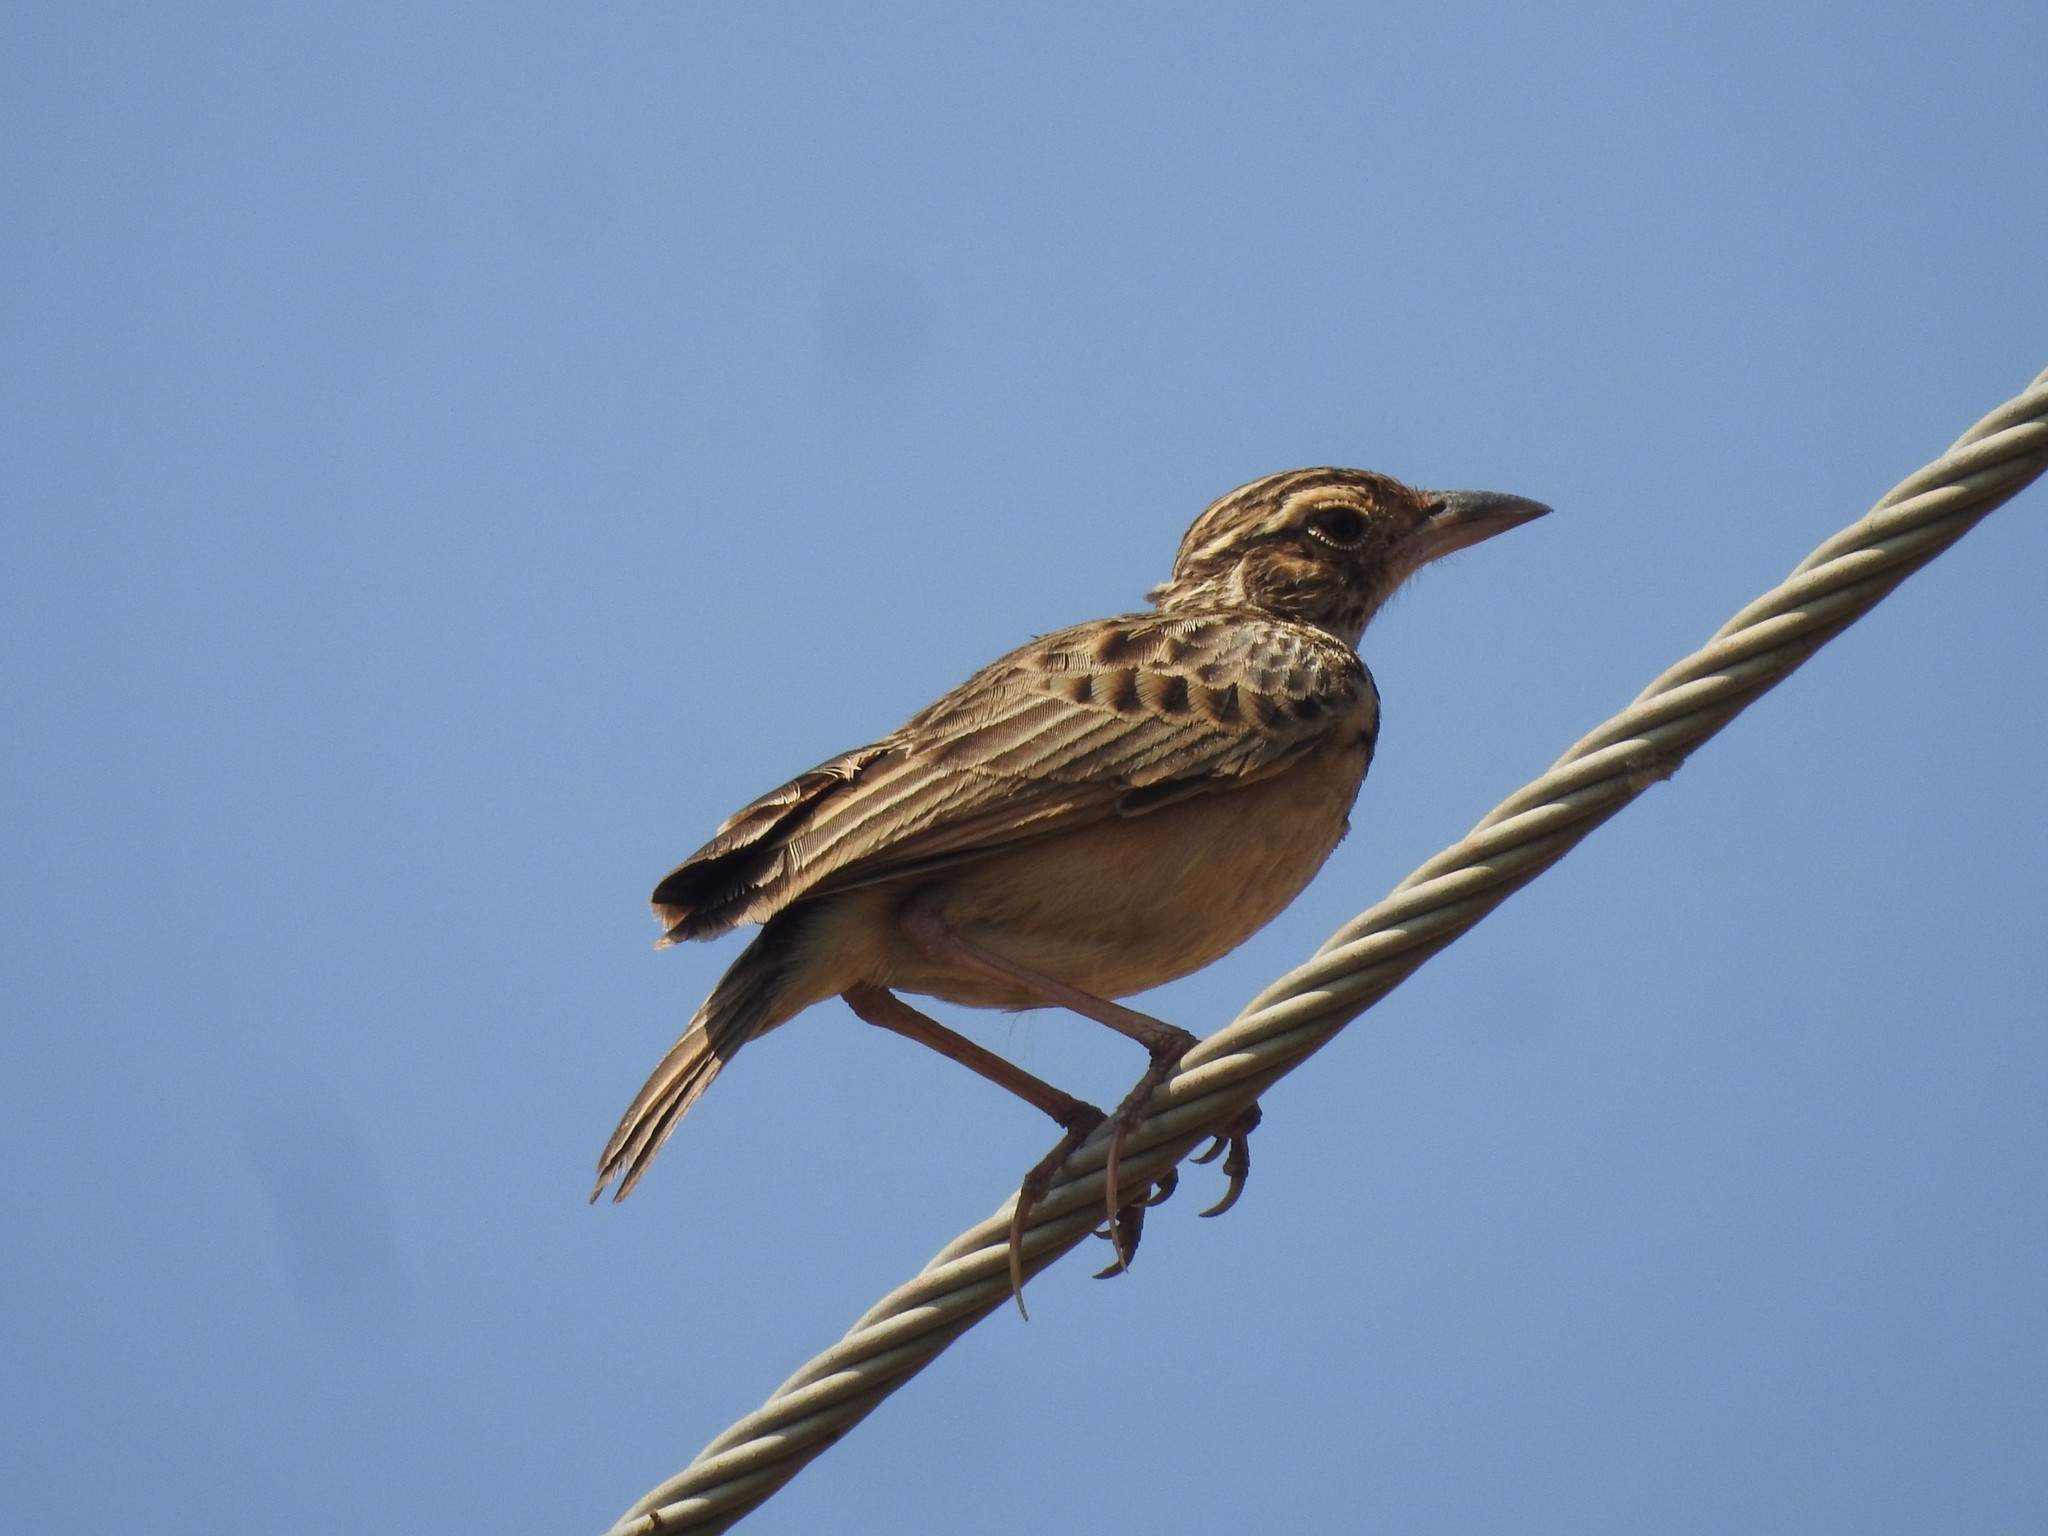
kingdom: Animalia
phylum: Chordata
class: Aves
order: Passeriformes
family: Alaudidae
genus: Mirafra
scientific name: Mirafra affinis
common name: Jerdon's bushlark
